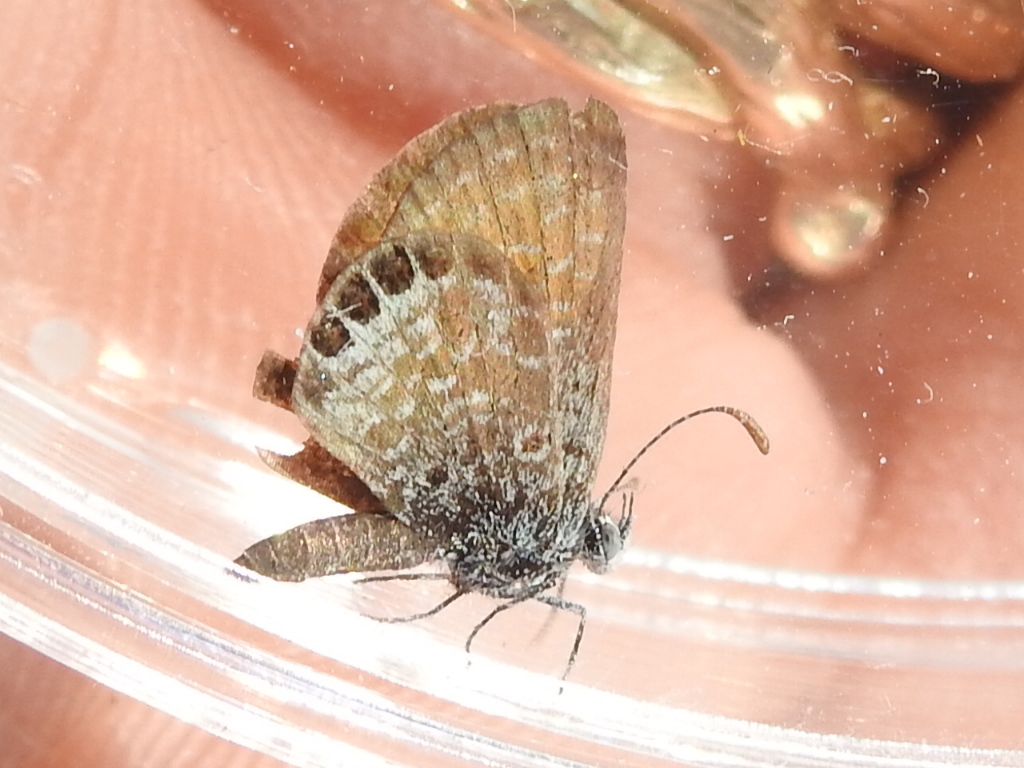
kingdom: Animalia
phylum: Arthropoda
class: Insecta
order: Lepidoptera
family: Lycaenidae
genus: Brephidium
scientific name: Brephidium exilis
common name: Pygmy blue
